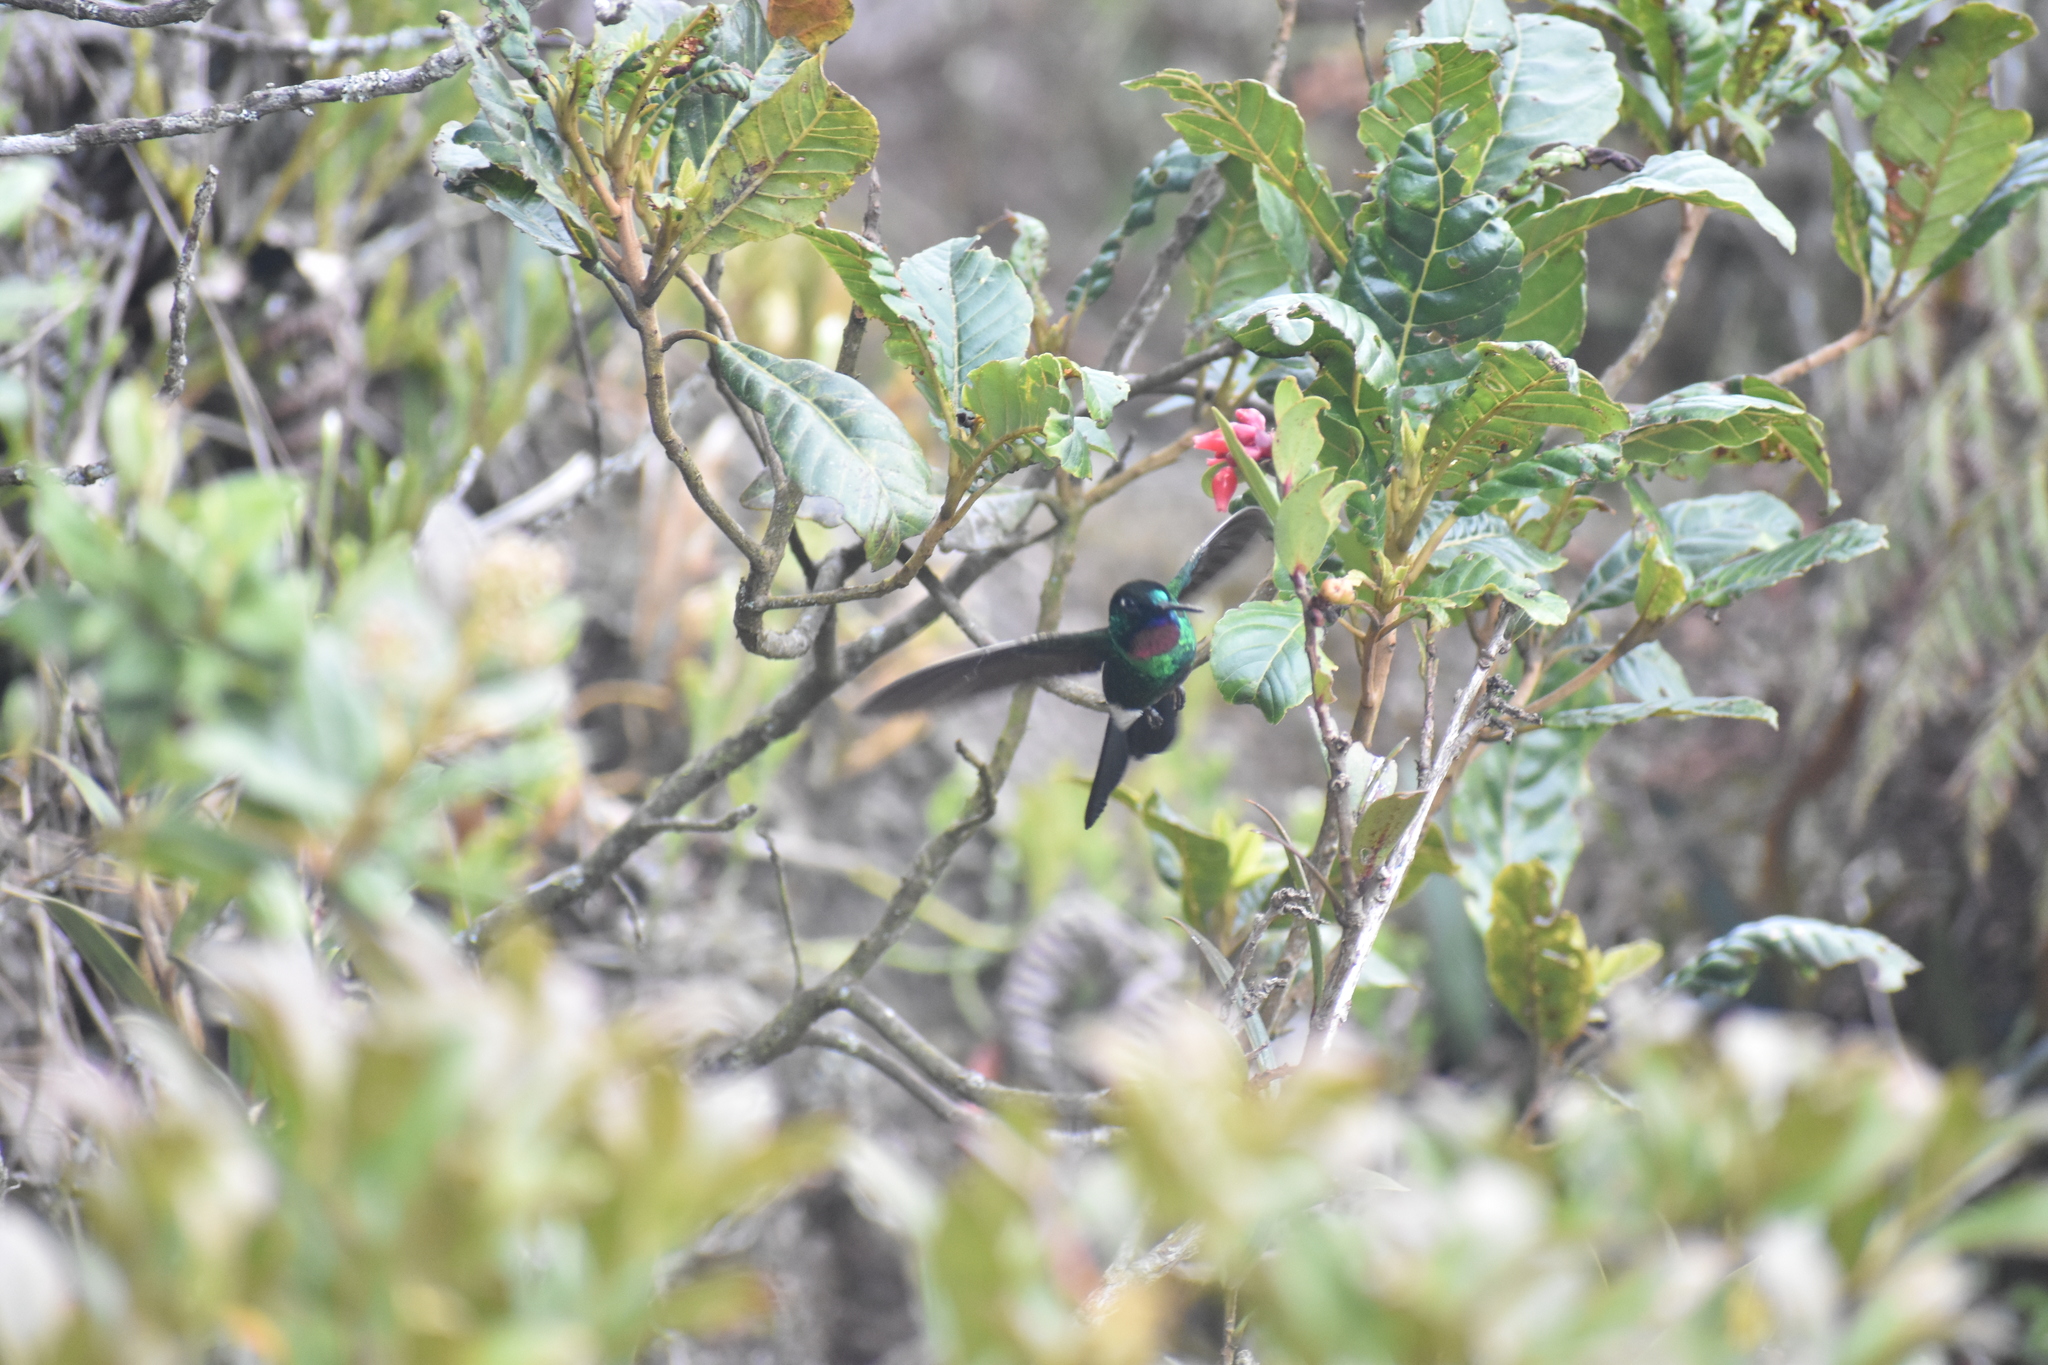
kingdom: Animalia
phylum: Chordata
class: Aves
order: Apodiformes
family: Trochilidae
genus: Heliangelus
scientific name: Heliangelus exortis
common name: Tourmaline sunangel
